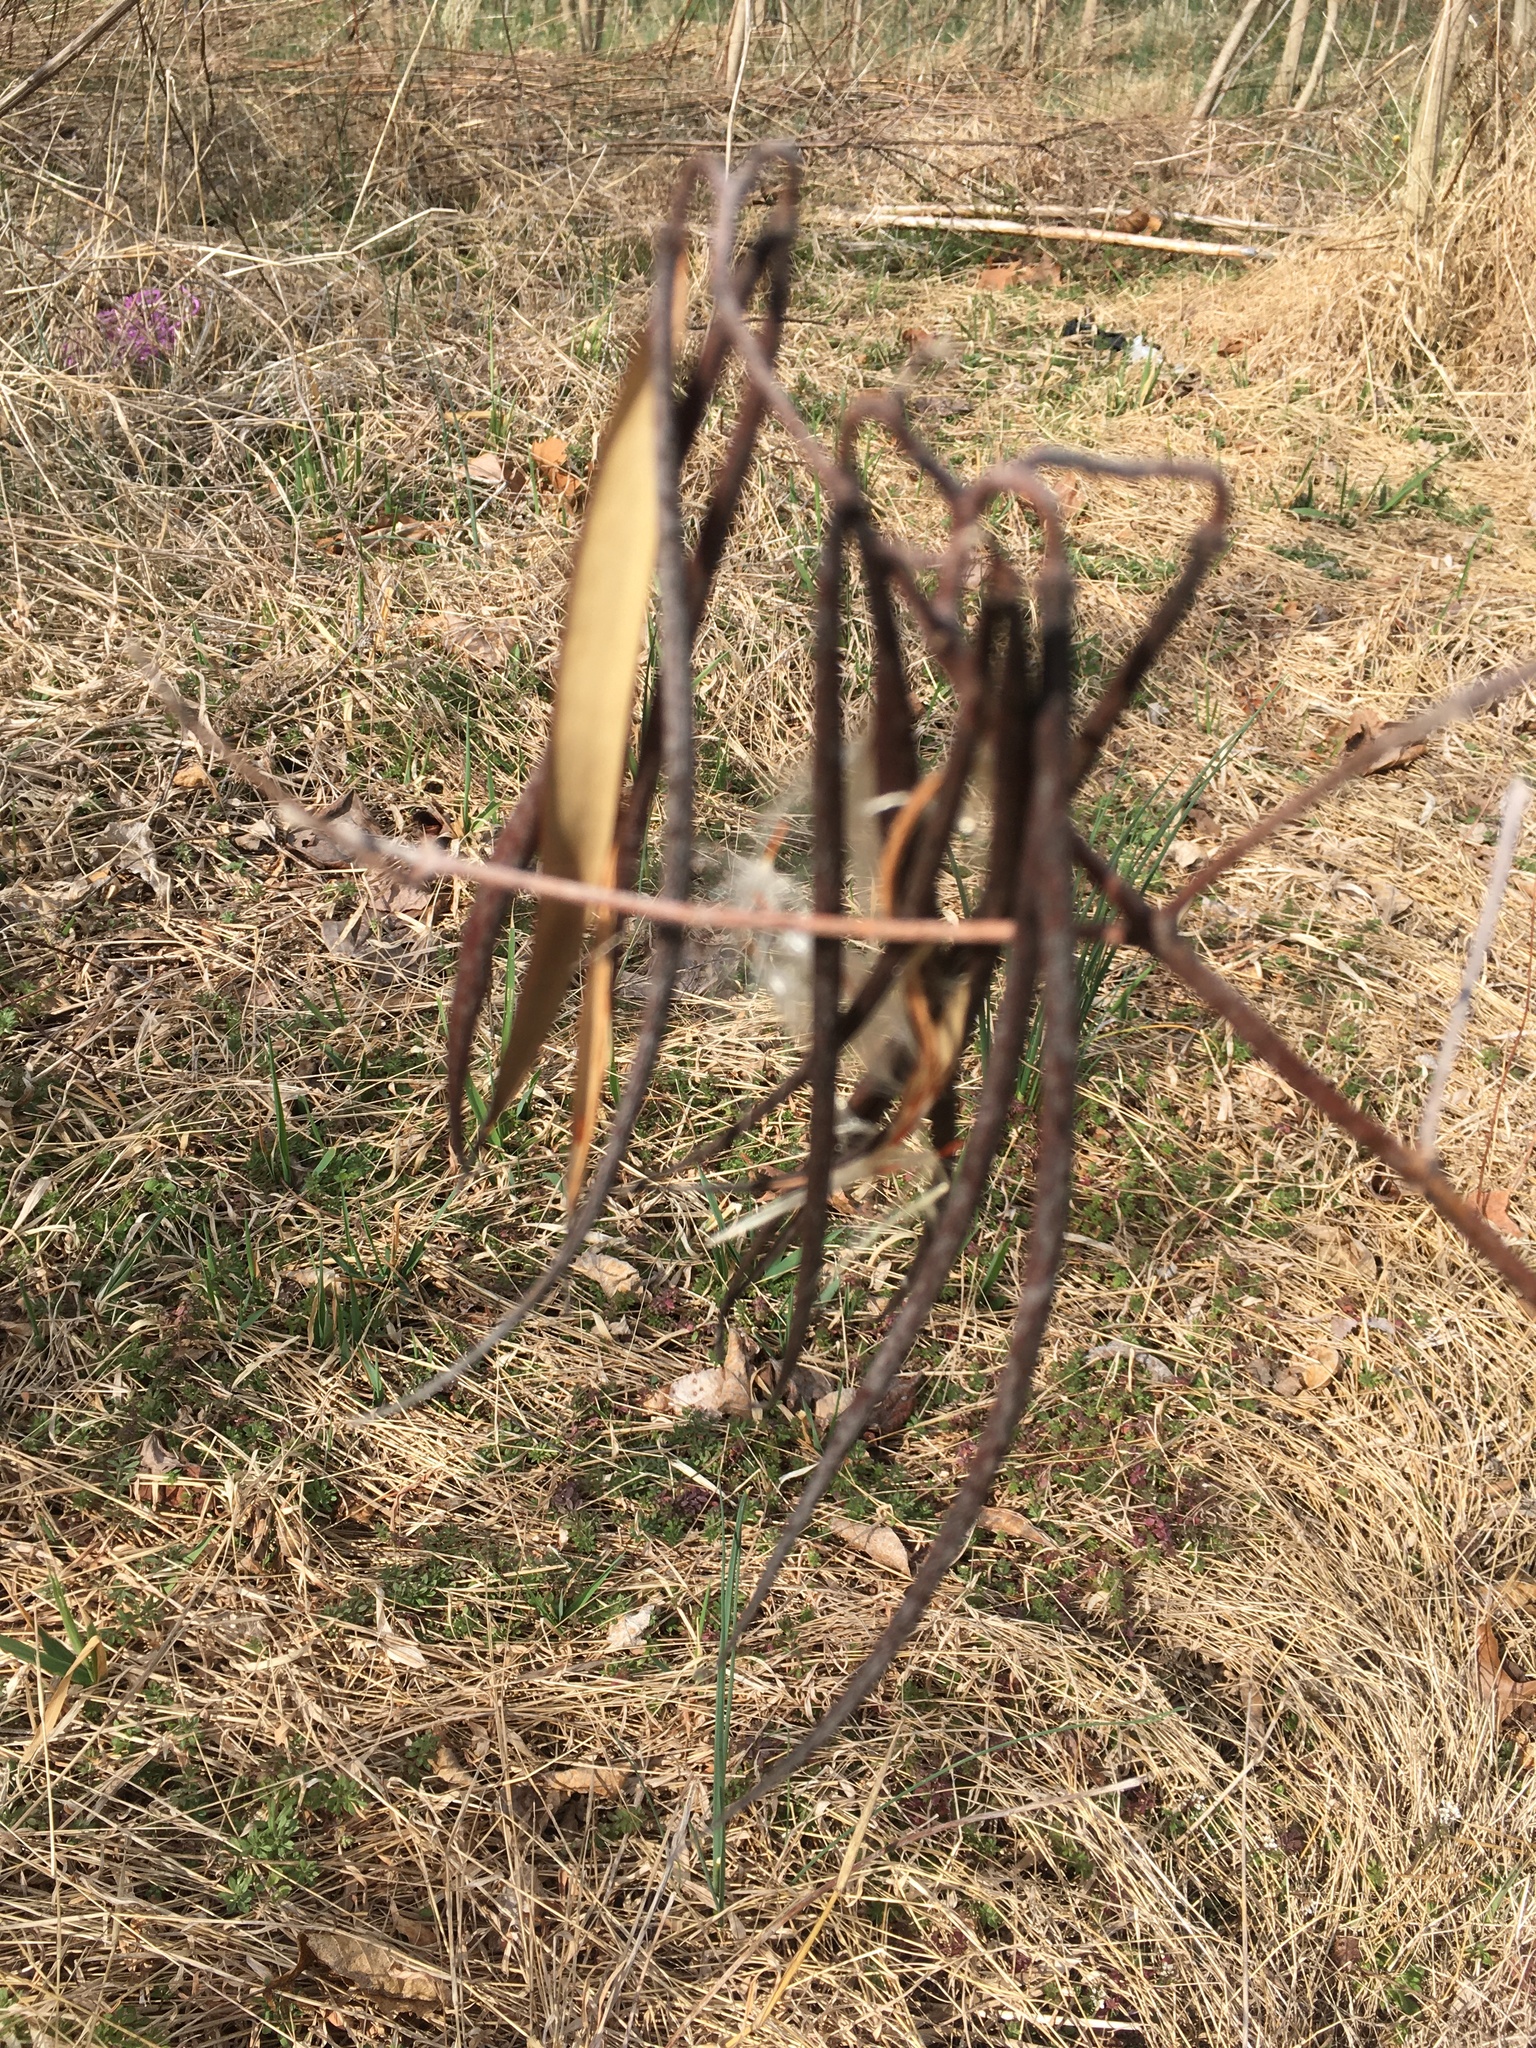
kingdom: Plantae
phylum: Tracheophyta
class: Magnoliopsida
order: Gentianales
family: Apocynaceae
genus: Apocynum
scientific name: Apocynum cannabinum
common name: Hemp dogbane
